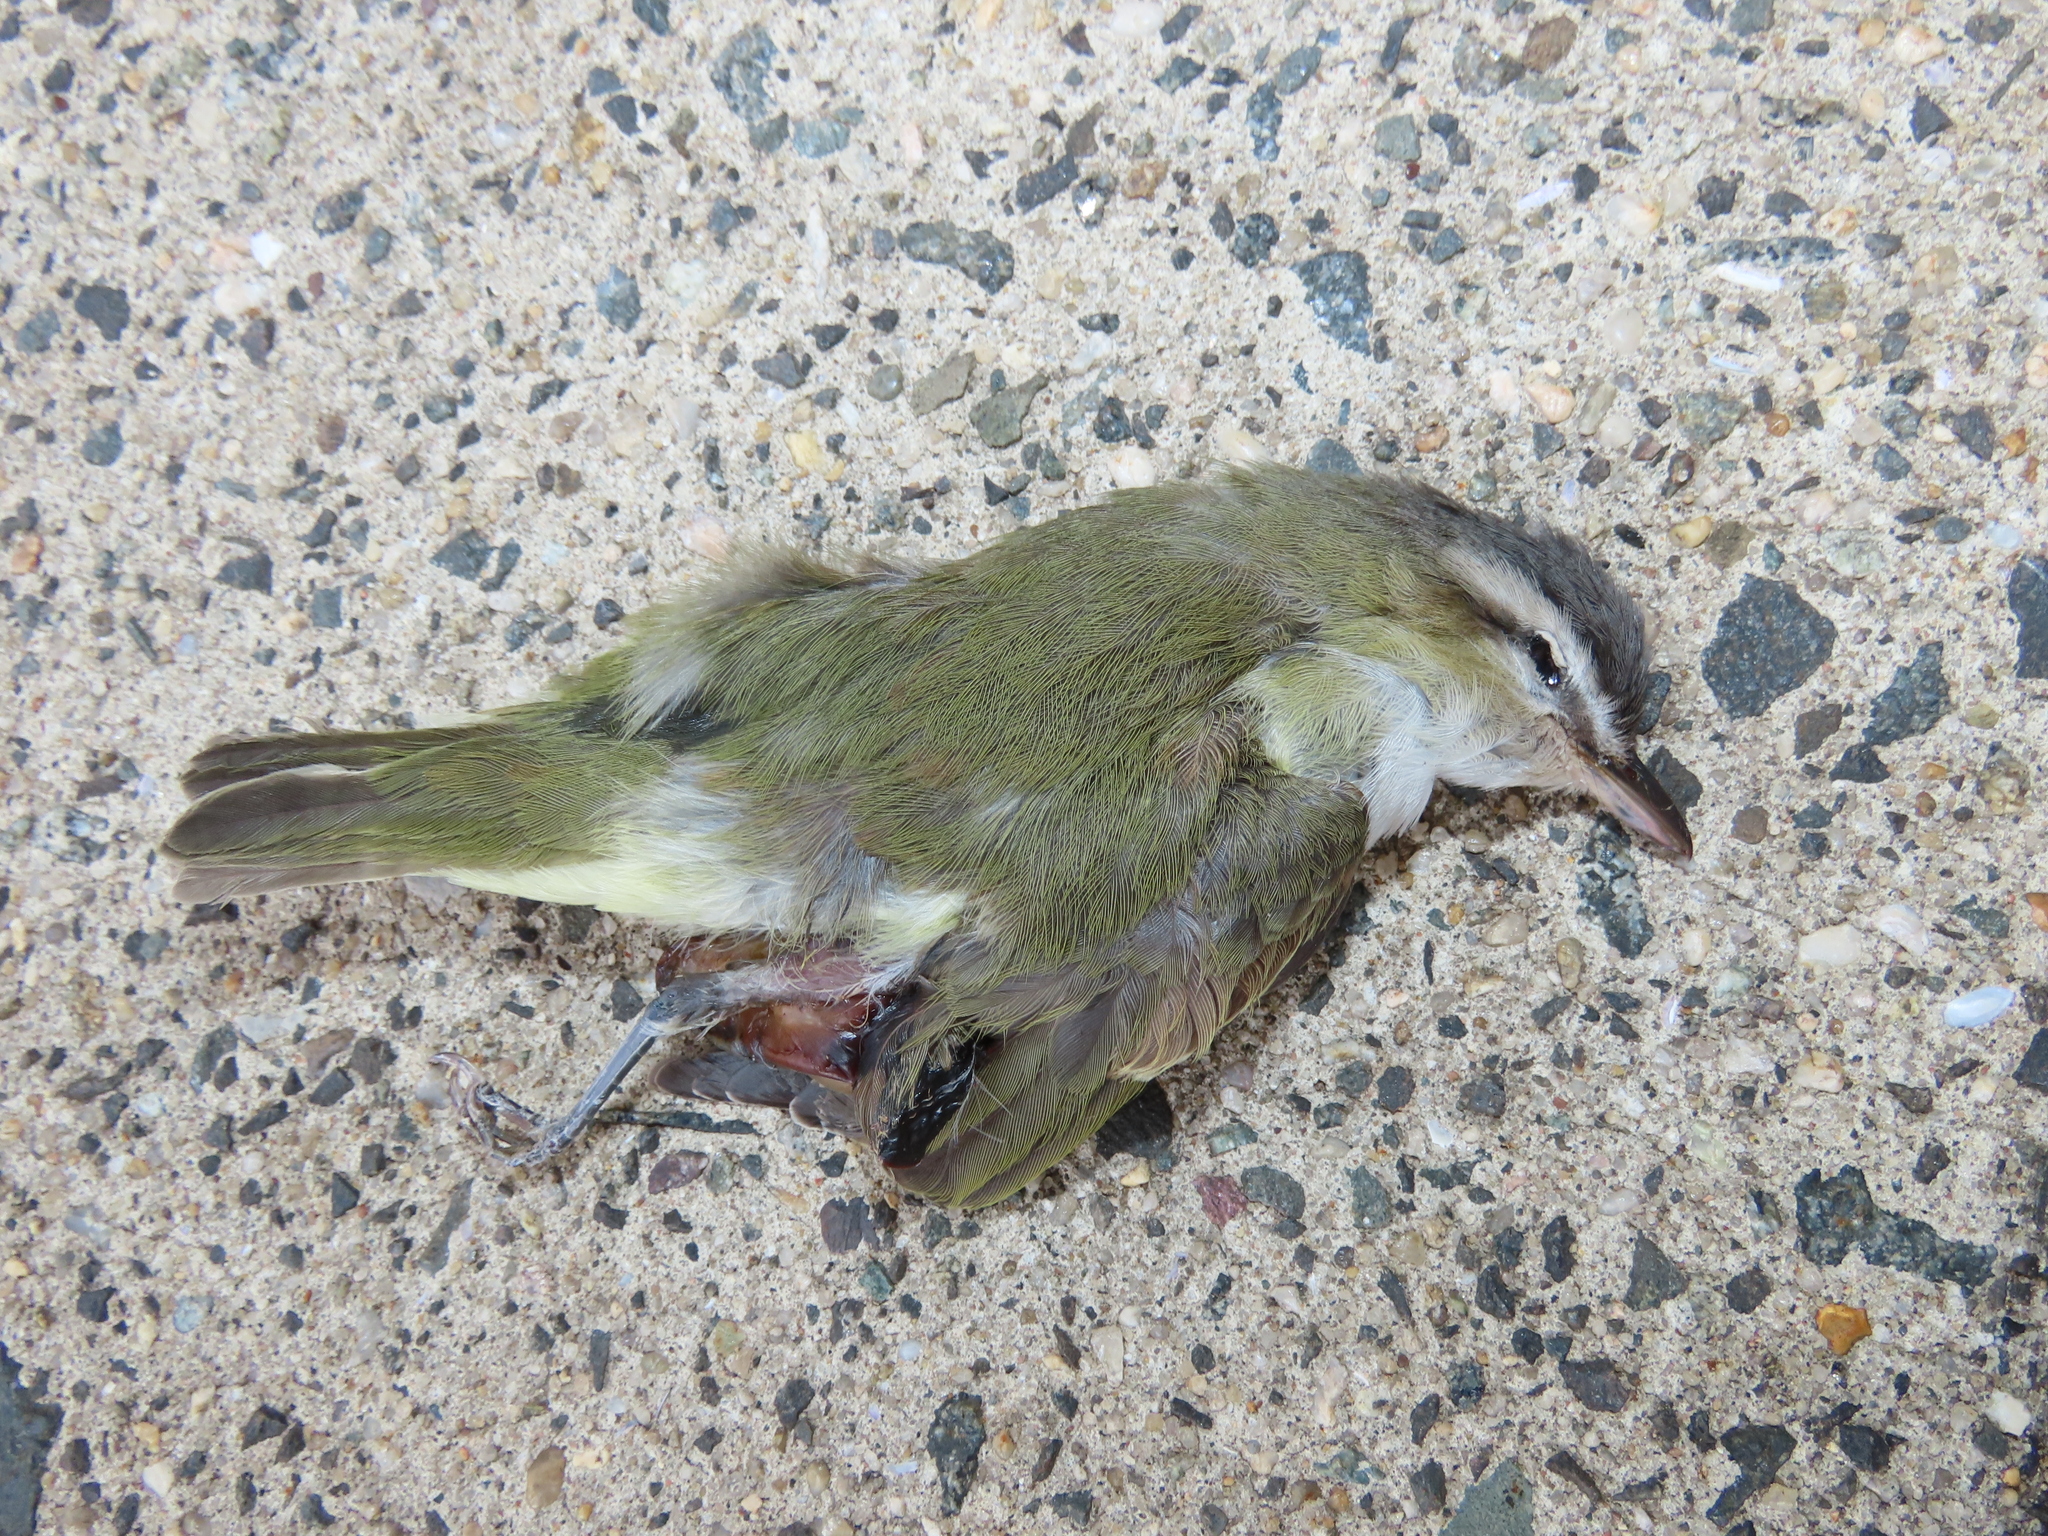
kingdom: Animalia
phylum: Chordata
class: Aves
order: Passeriformes
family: Vireonidae
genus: Vireo
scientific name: Vireo olivaceus
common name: Red-eyed vireo
